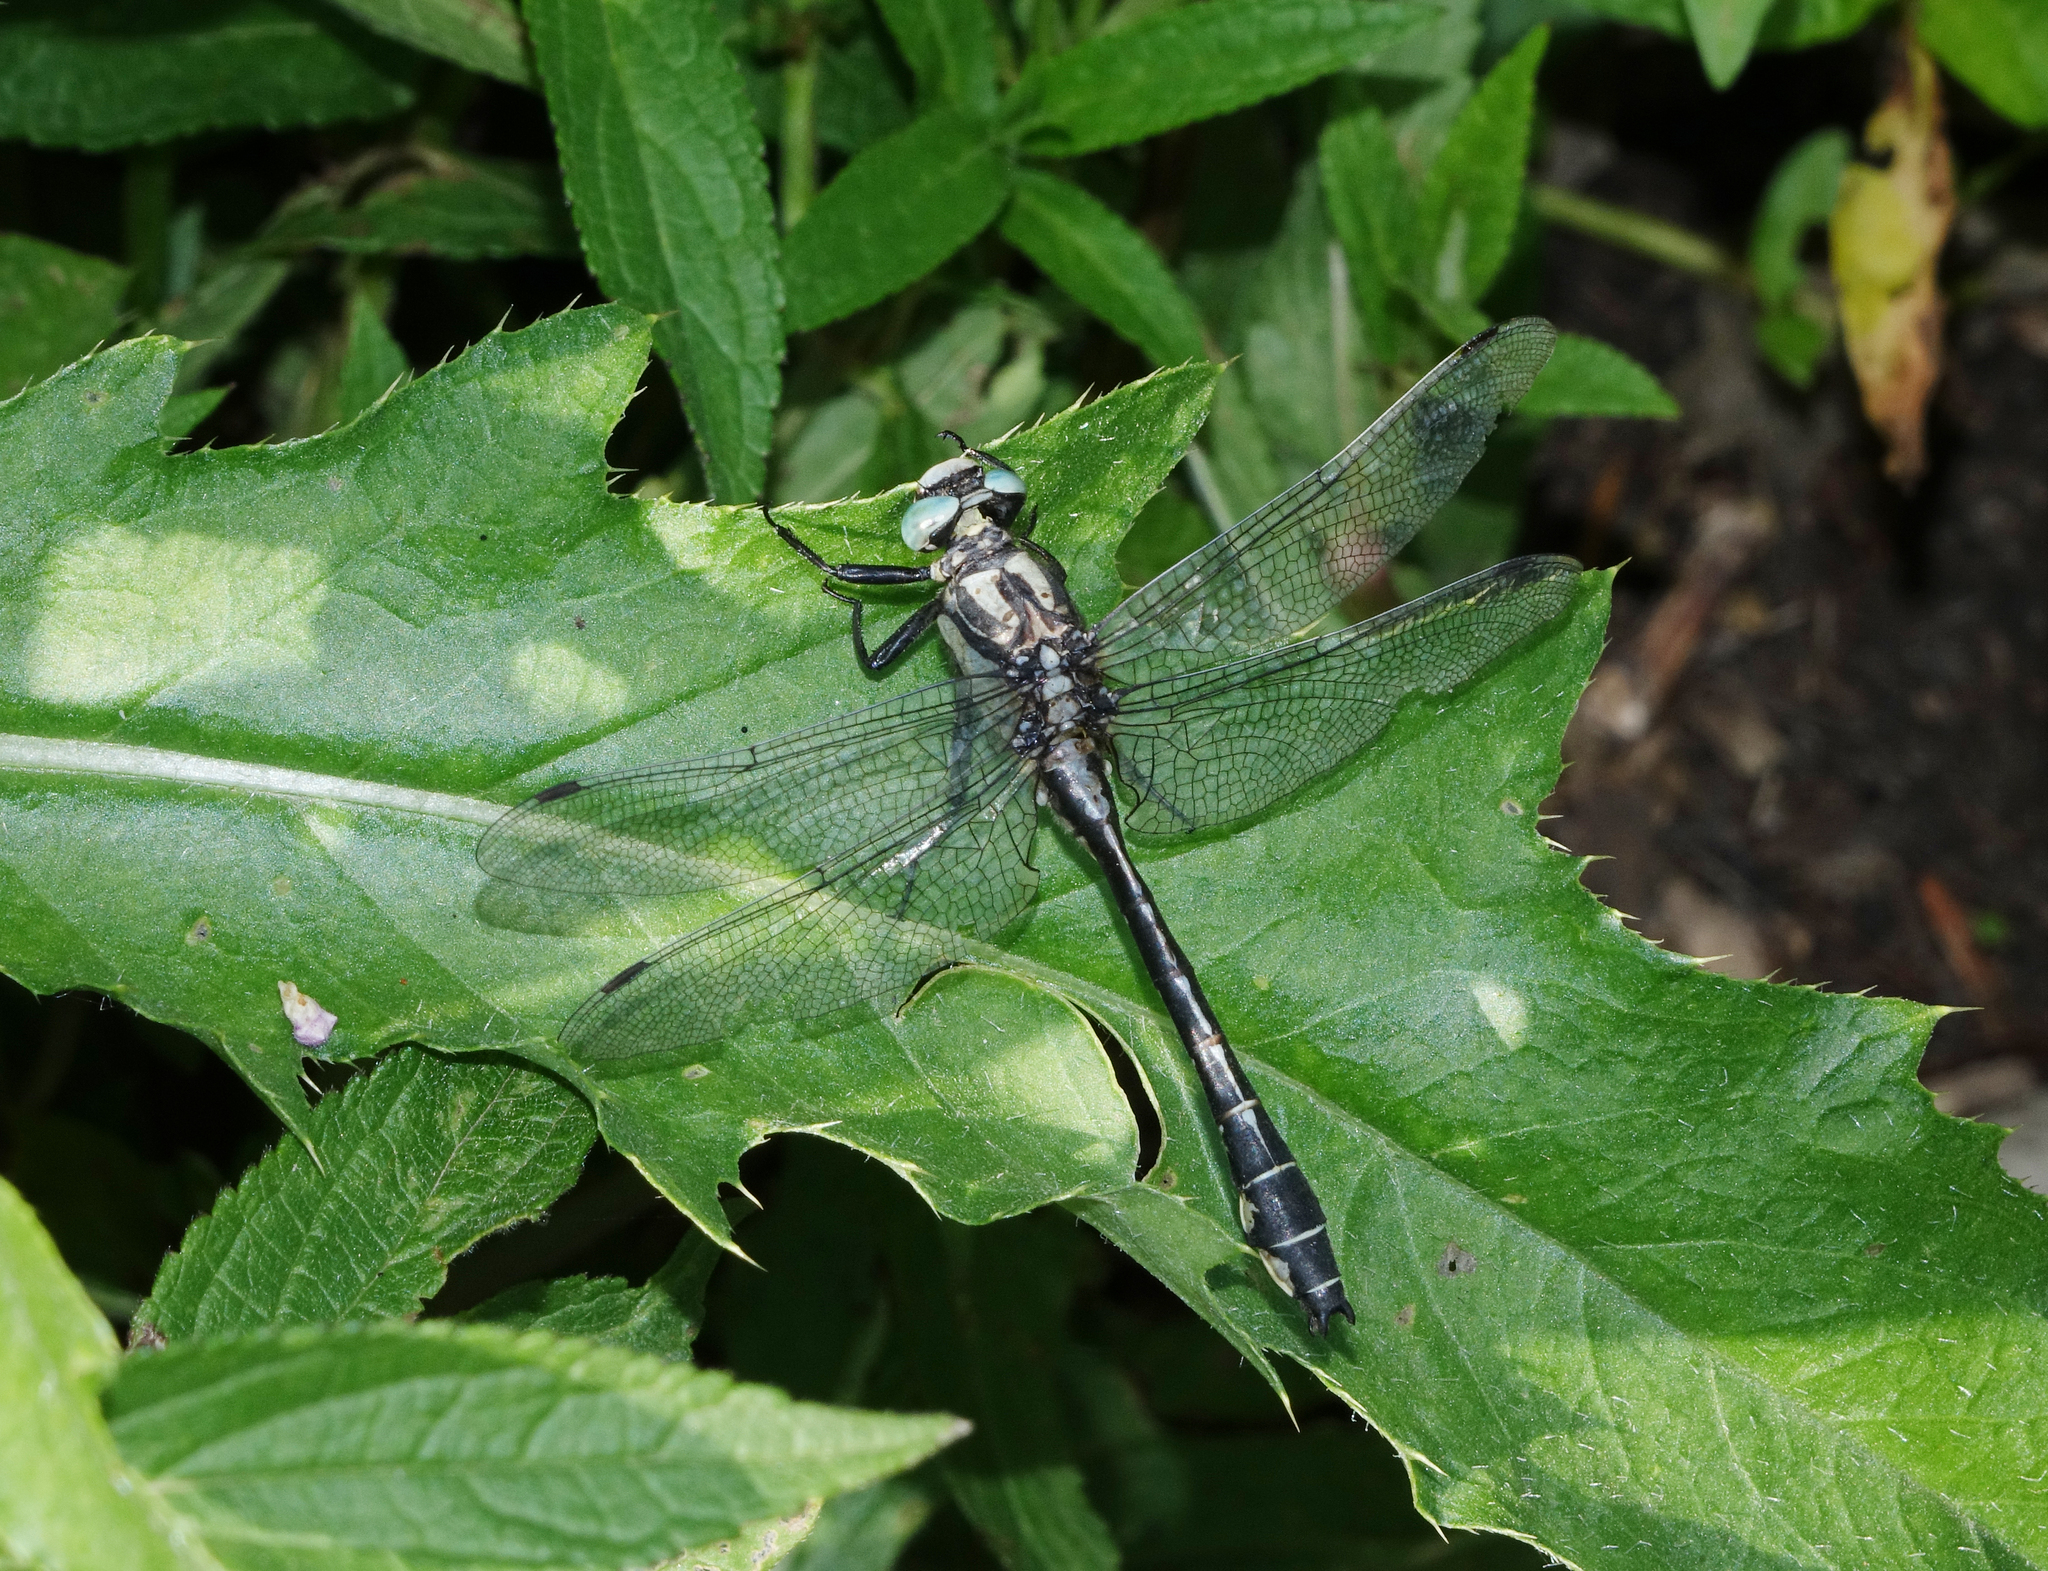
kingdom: Animalia
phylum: Arthropoda
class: Insecta
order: Odonata
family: Gomphidae
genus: Gomphus
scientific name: Gomphus vulgatissimus
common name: Club-tailed dragonfly
